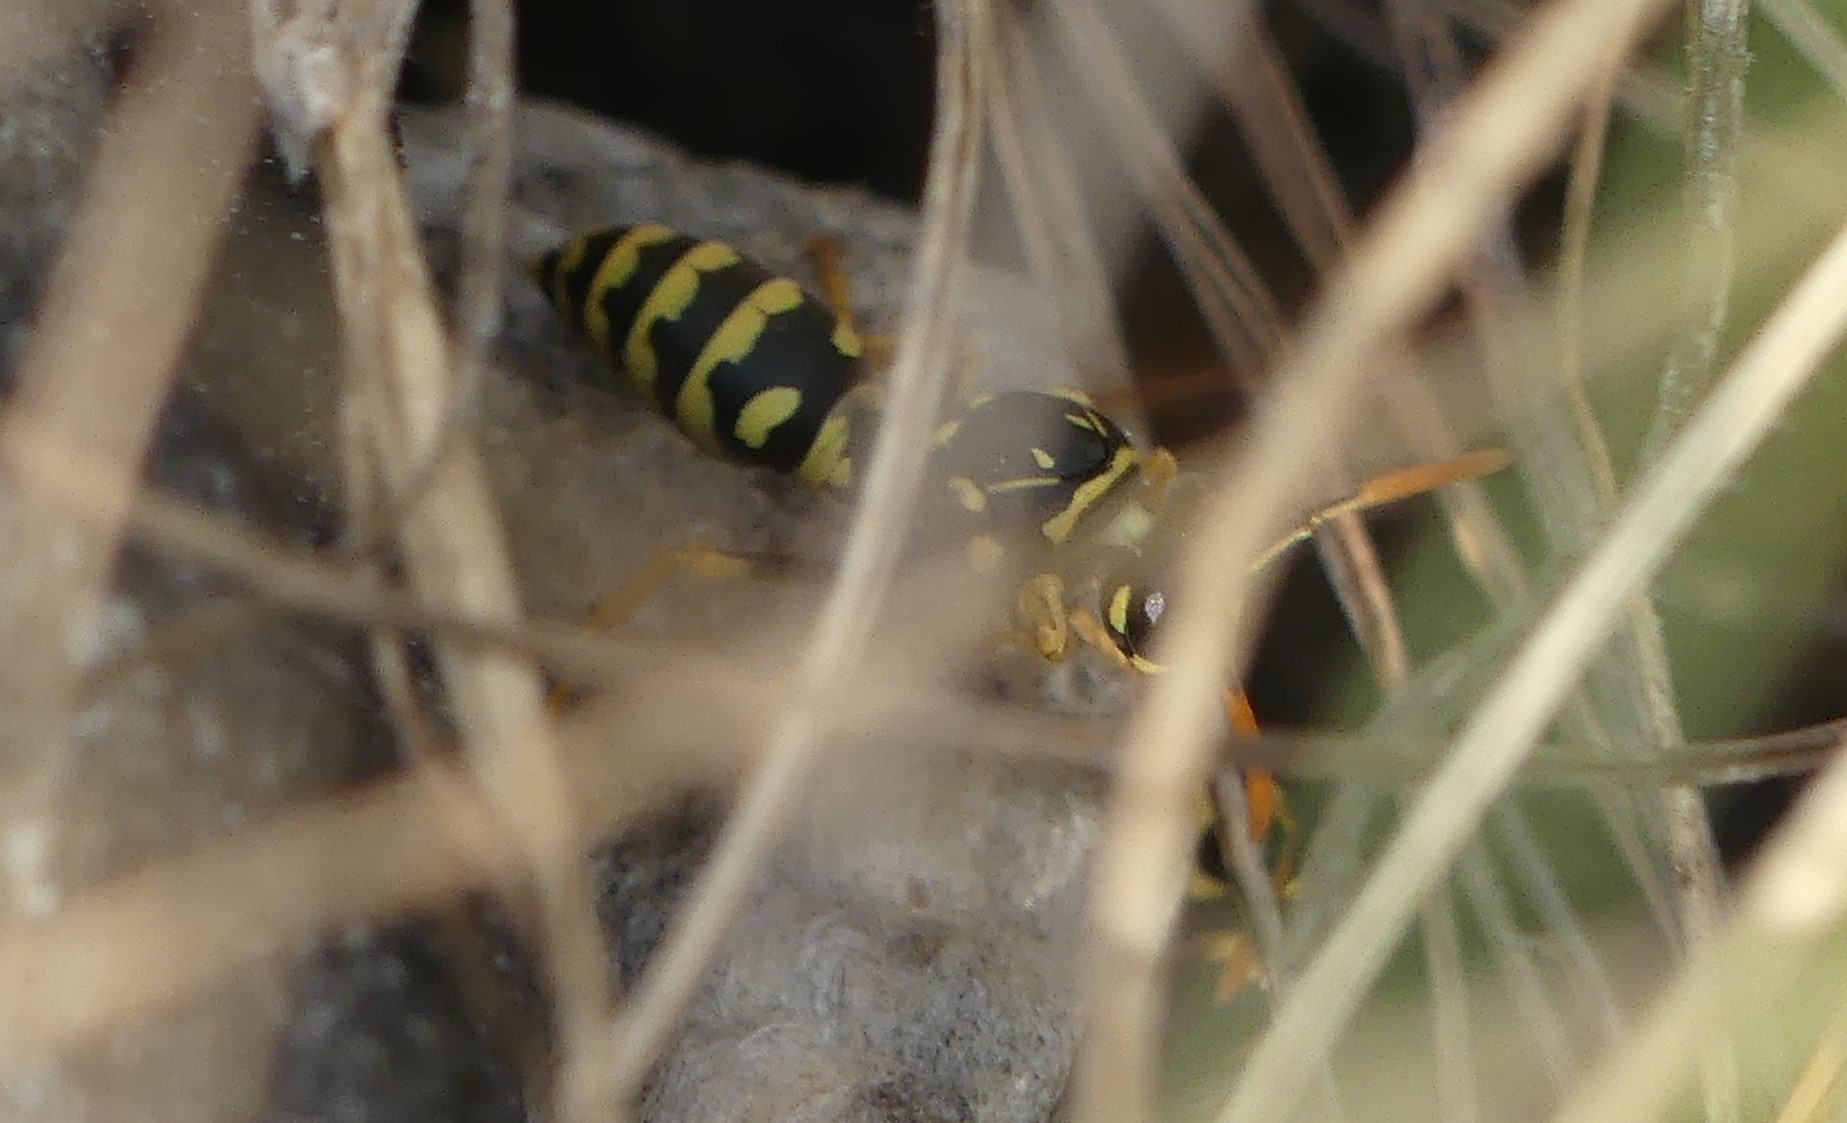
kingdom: Animalia
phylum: Arthropoda
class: Insecta
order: Hymenoptera
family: Eumenidae
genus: Polistes
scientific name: Polistes dominula
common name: Paper wasp
